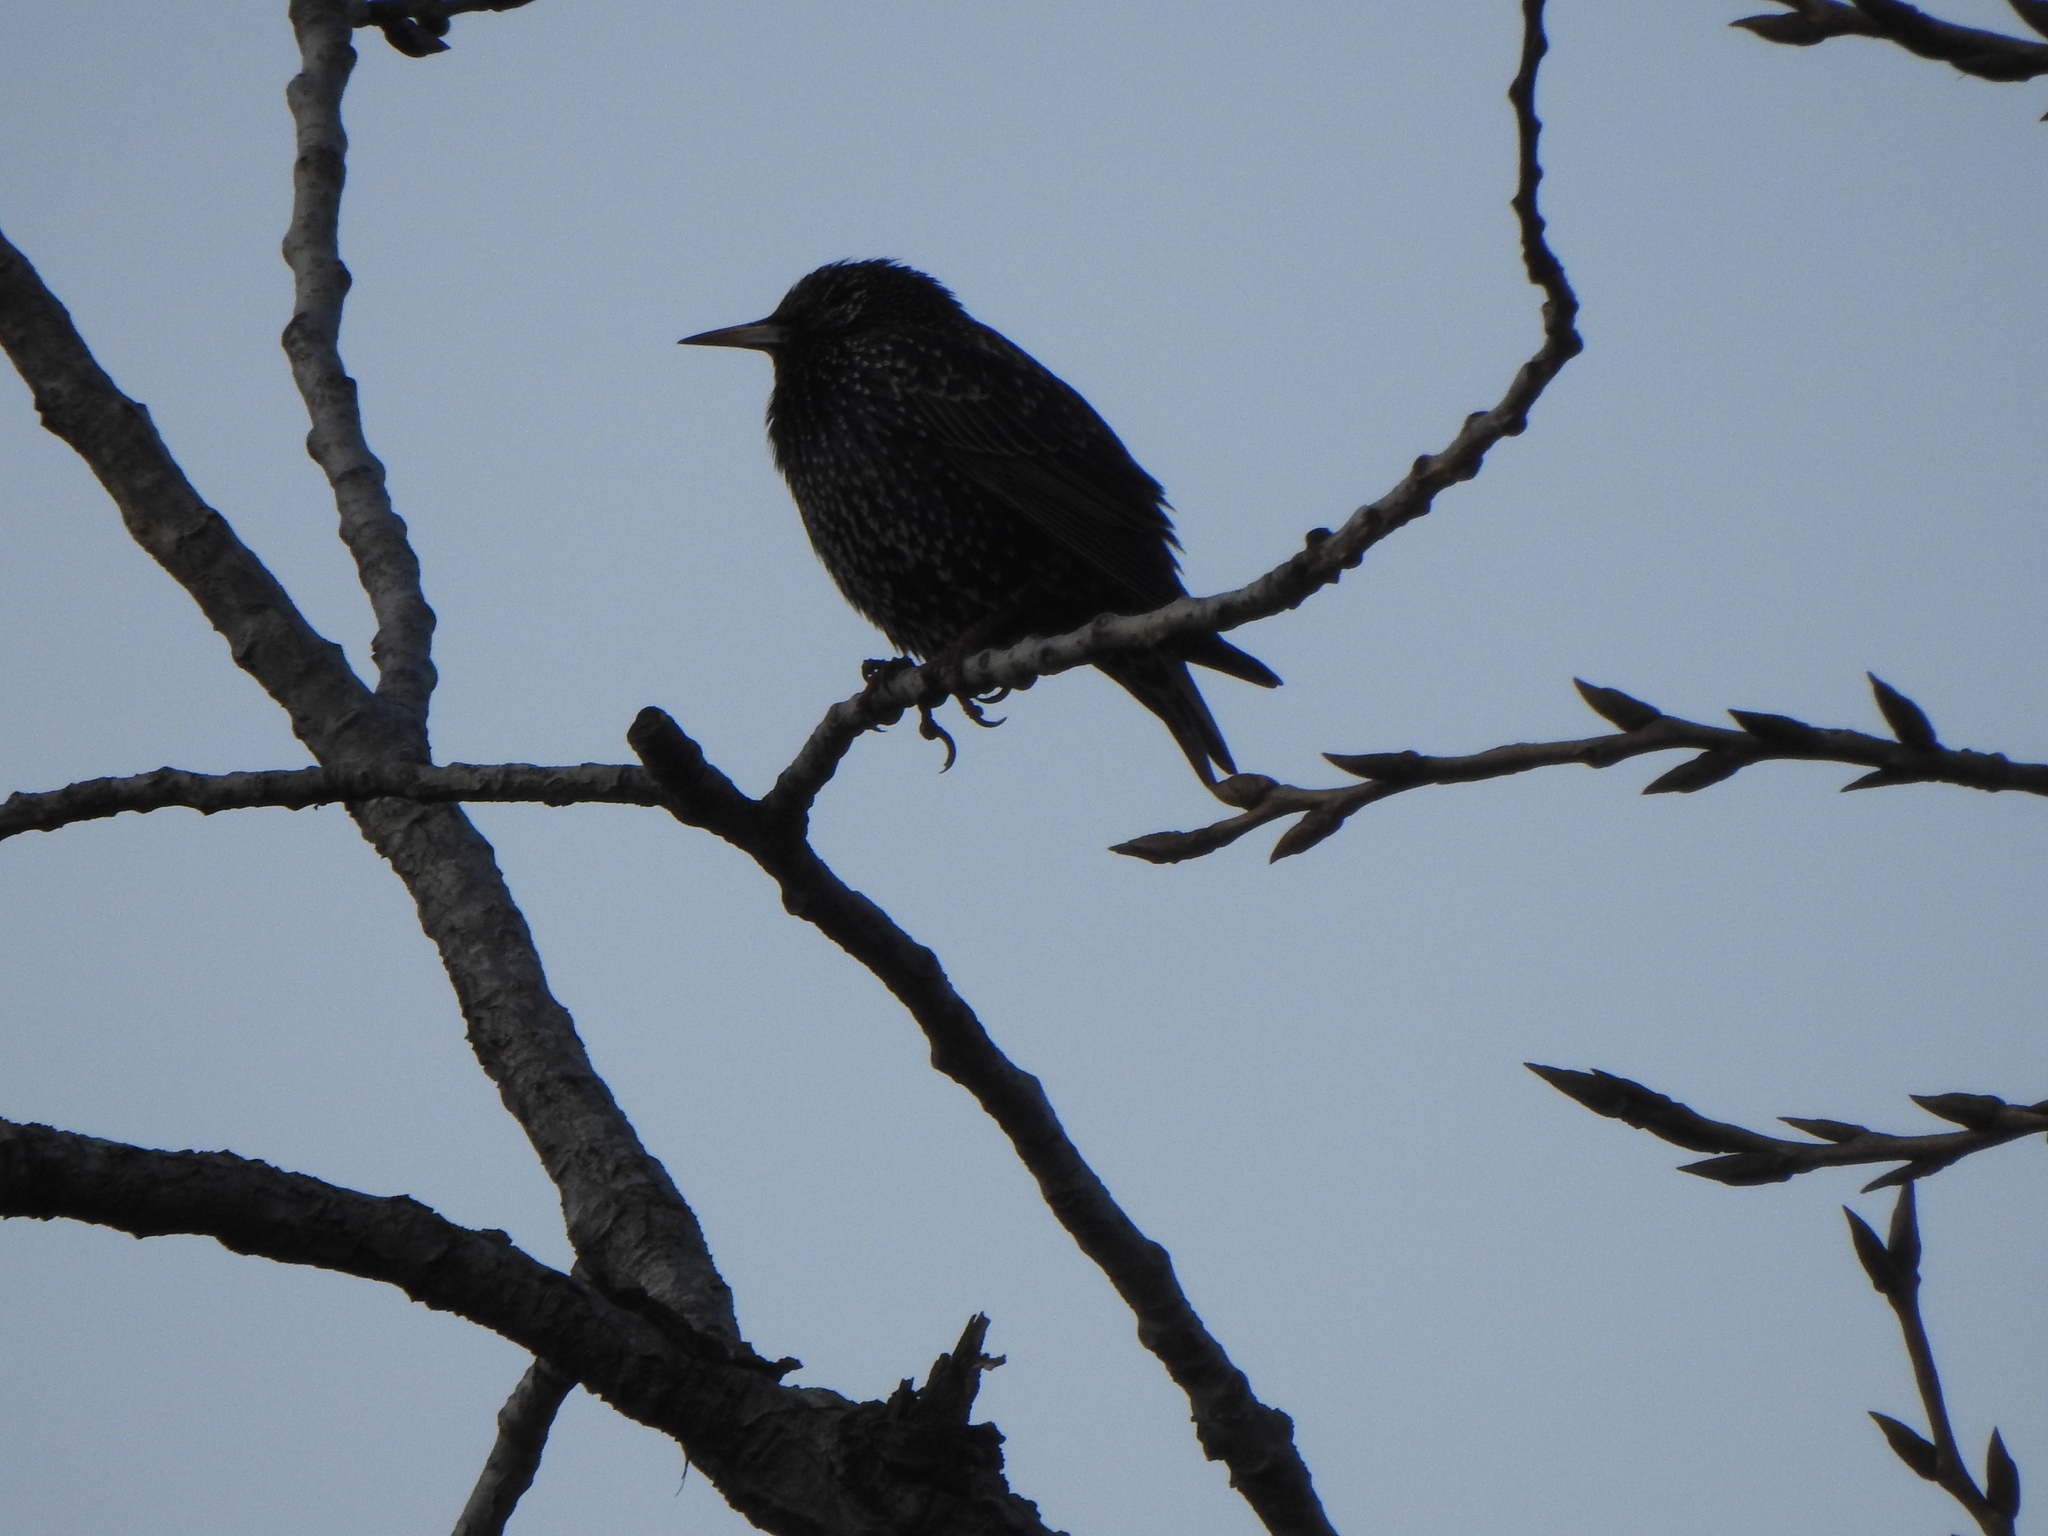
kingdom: Animalia
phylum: Chordata
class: Aves
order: Passeriformes
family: Sturnidae
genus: Sturnus
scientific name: Sturnus vulgaris
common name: Common starling
